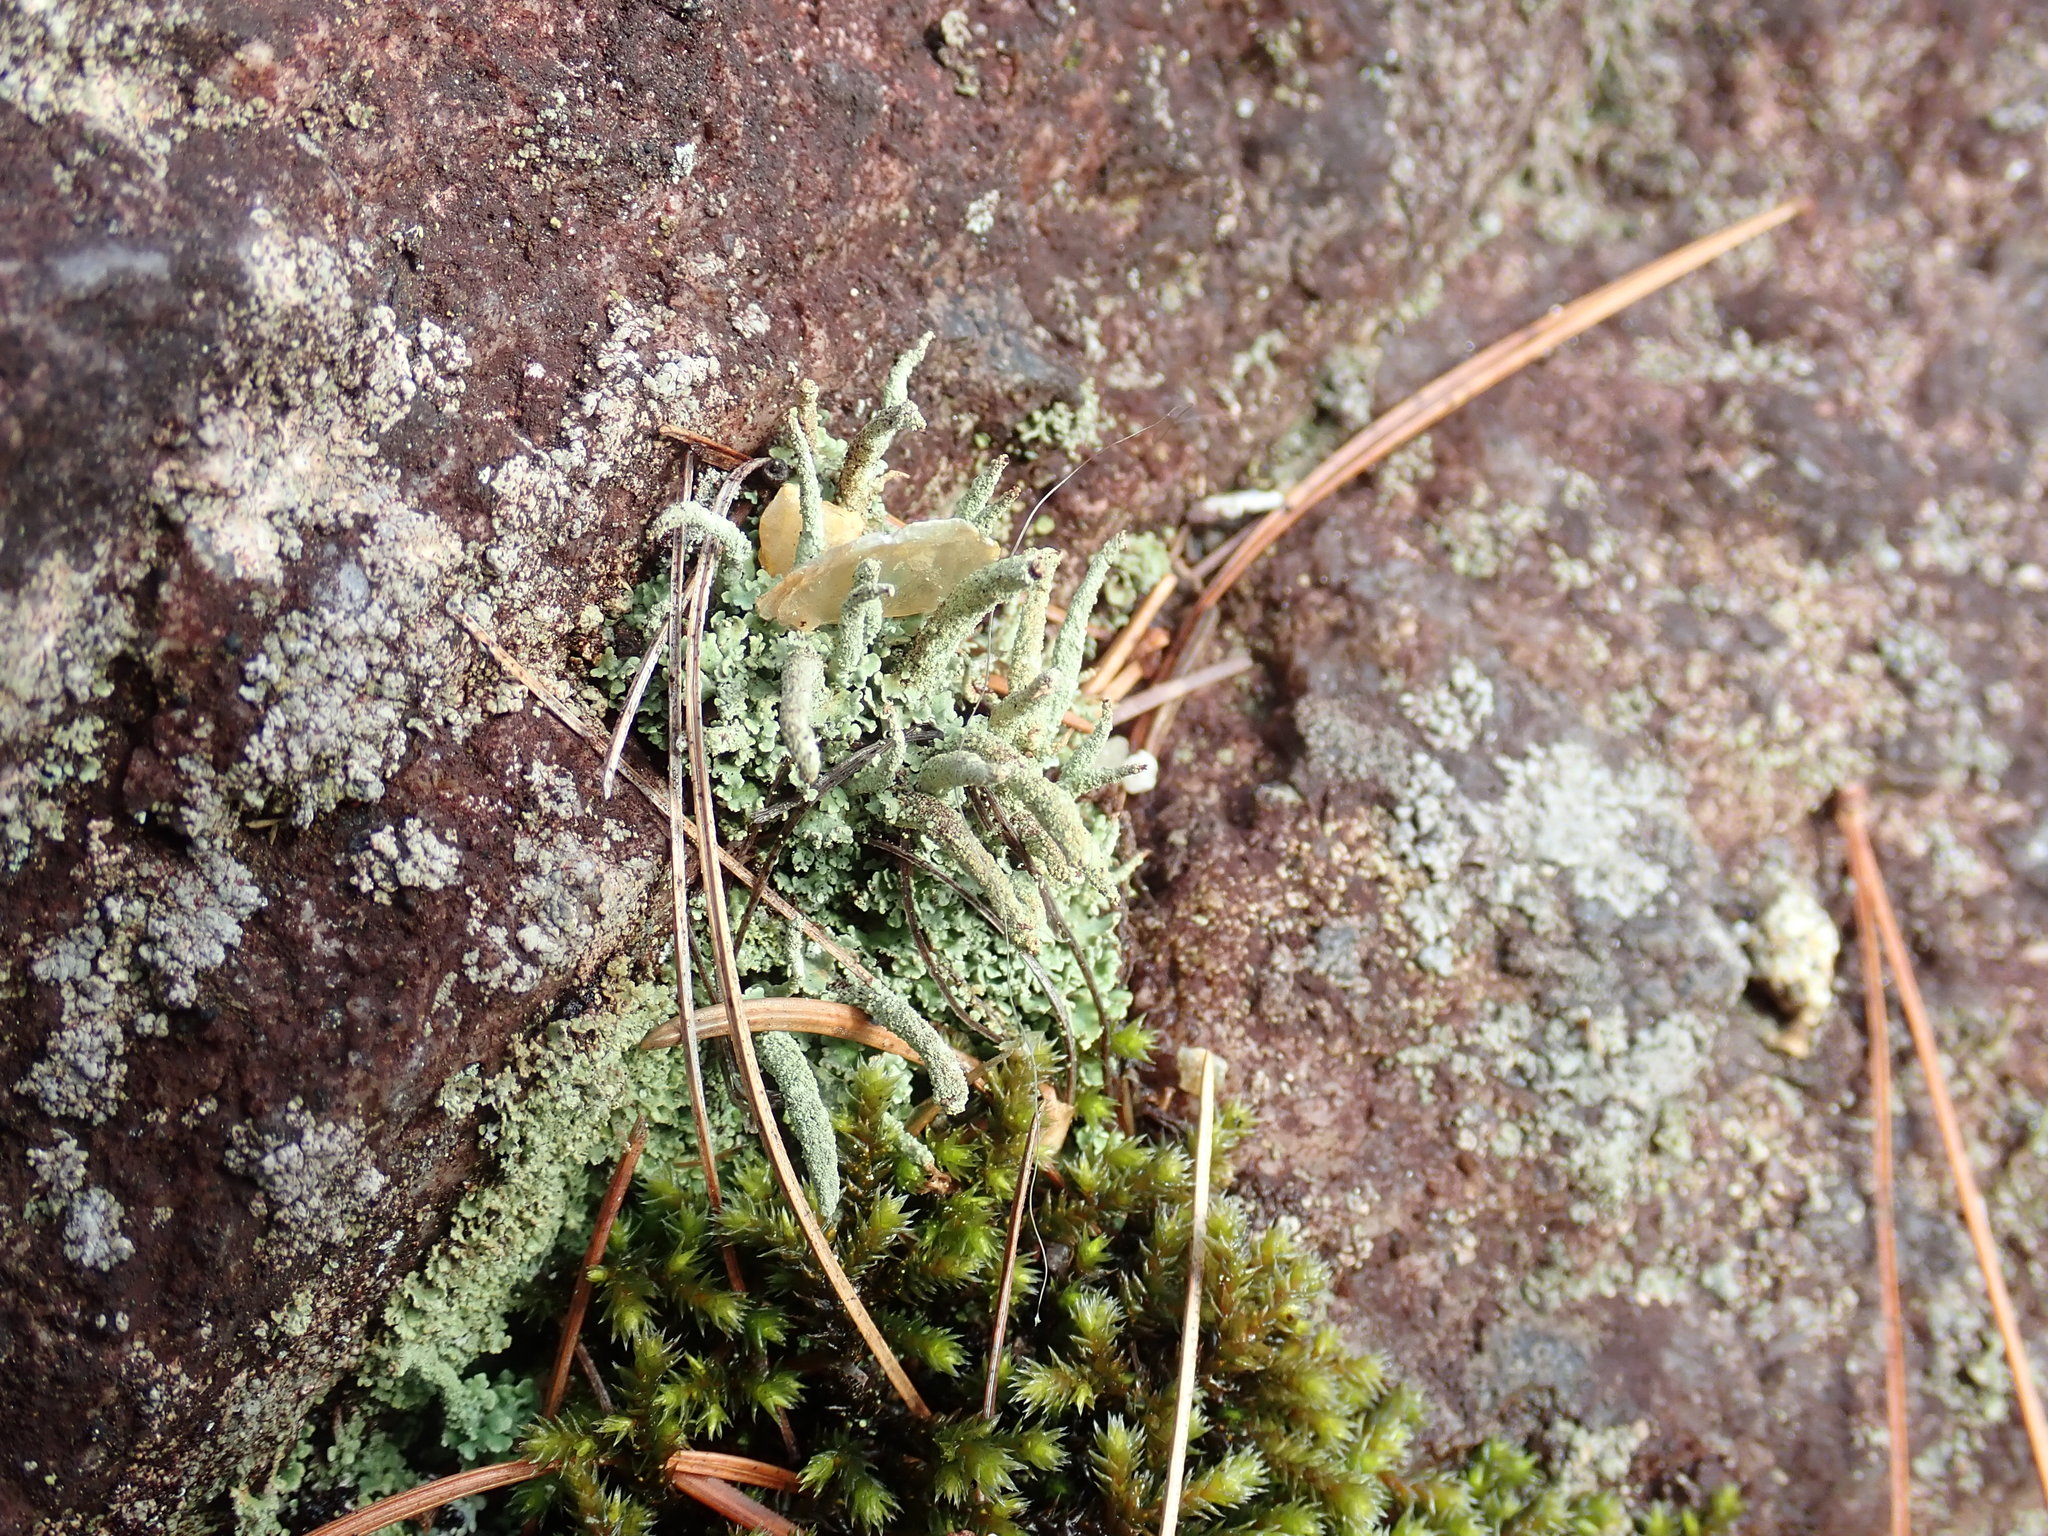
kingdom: Fungi
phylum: Ascomycota
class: Lecanoromycetes
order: Lecanorales
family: Cladoniaceae
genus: Cladonia
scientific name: Cladonia coniocraea
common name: Common powderhorn
